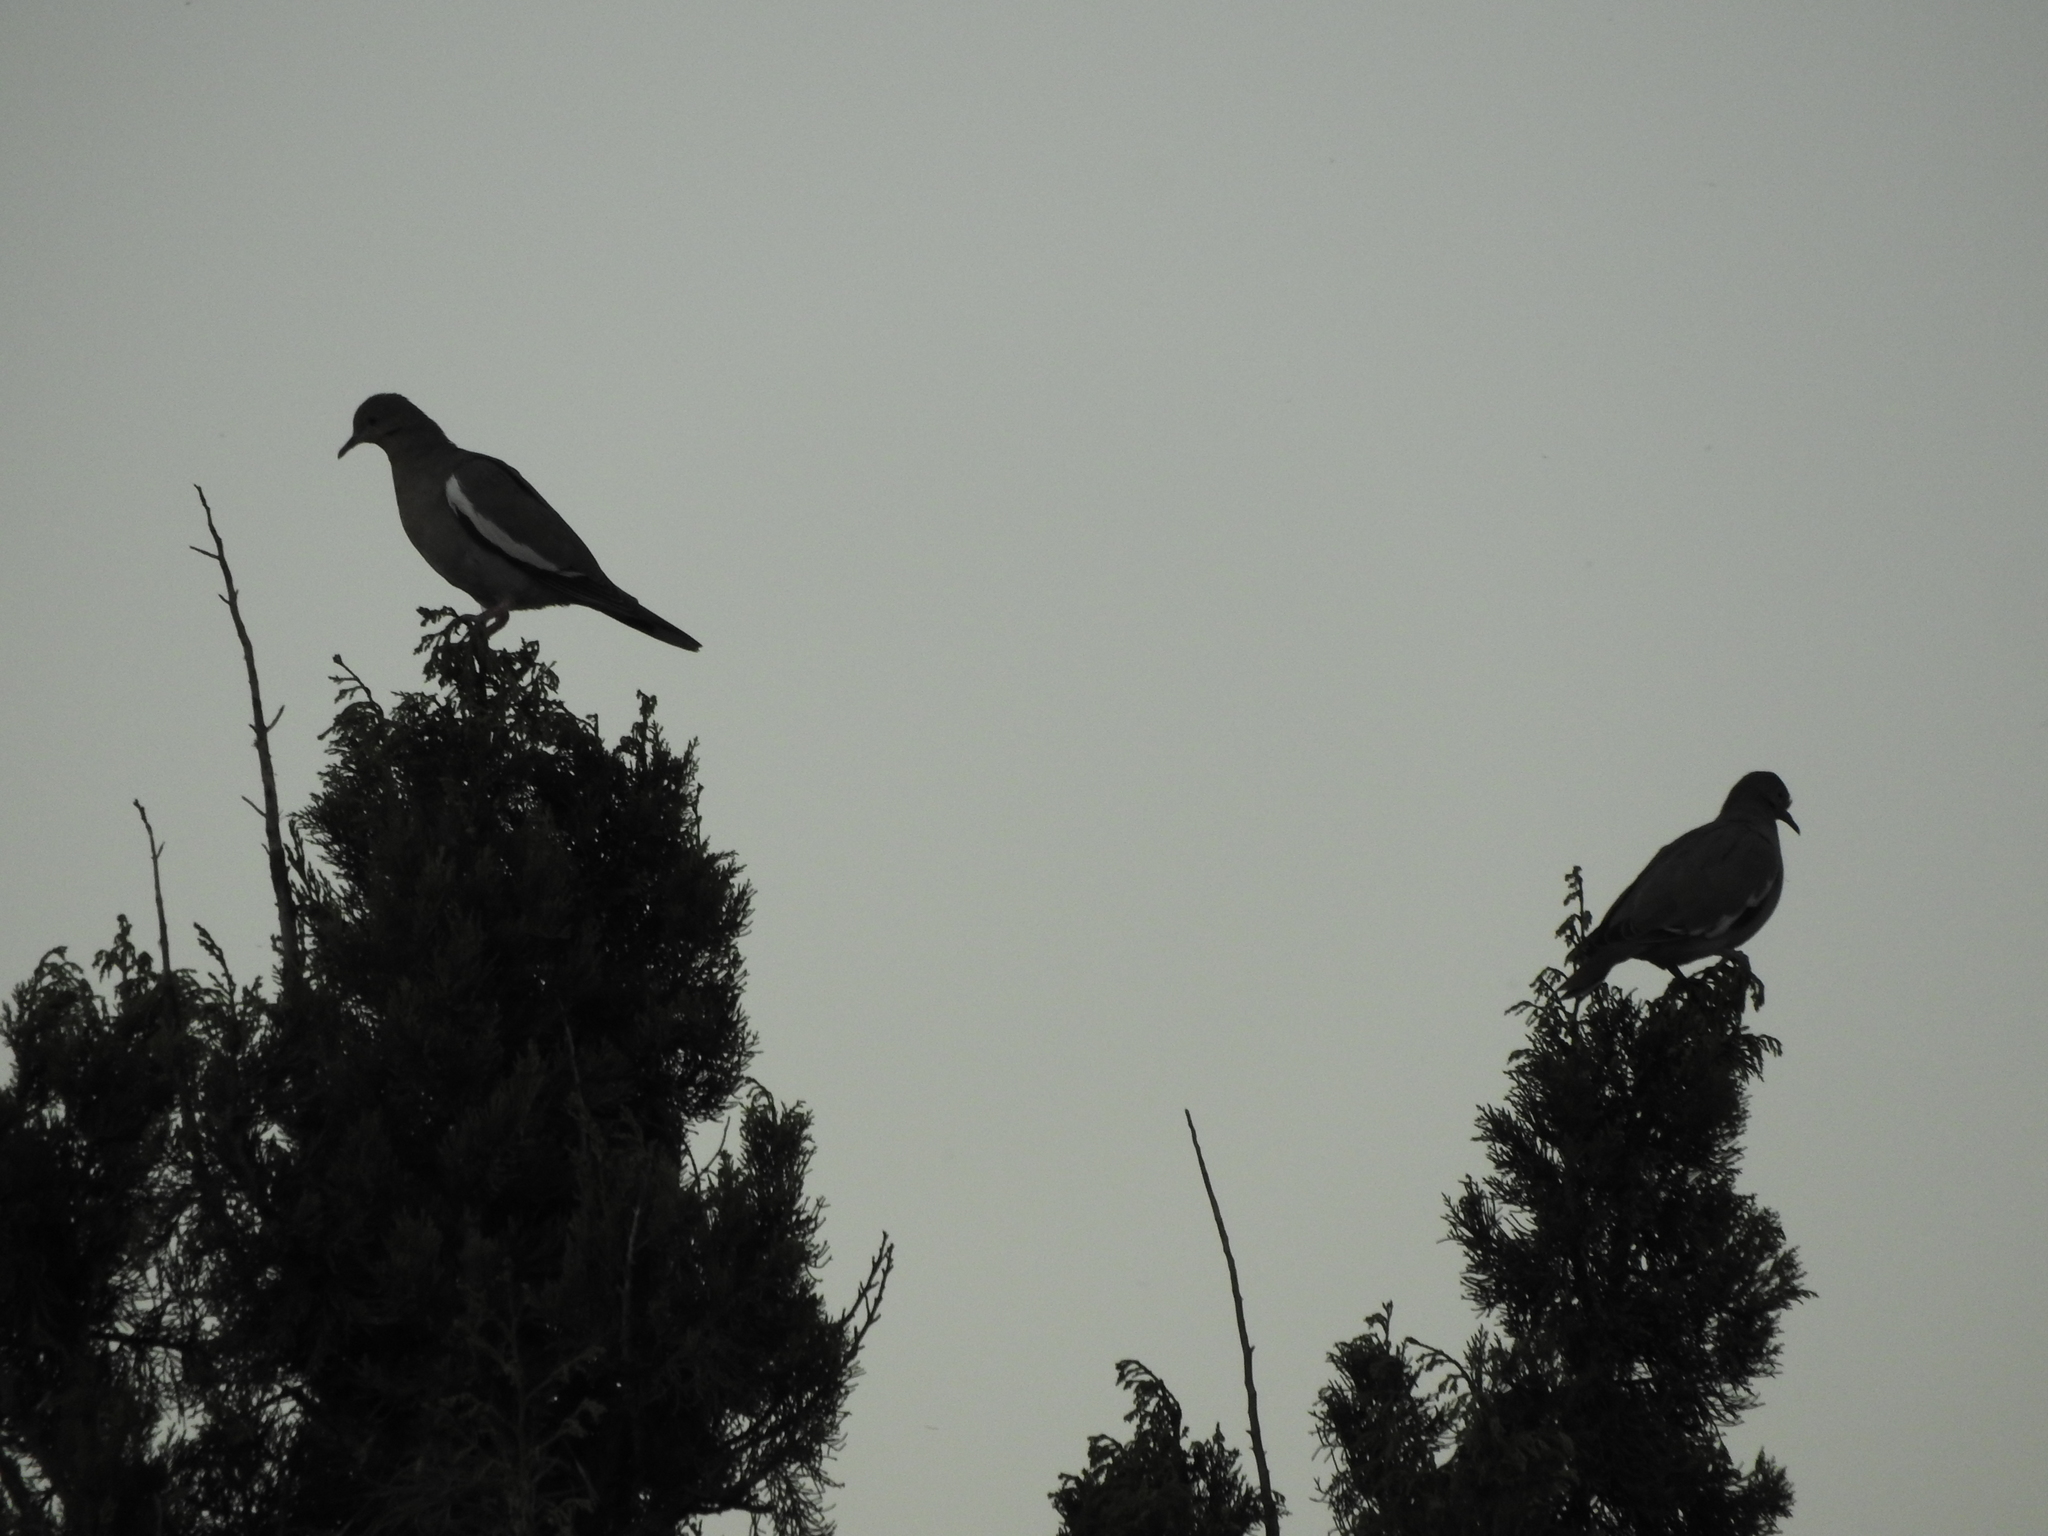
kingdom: Animalia
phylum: Chordata
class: Aves
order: Columbiformes
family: Columbidae
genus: Zenaida
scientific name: Zenaida asiatica
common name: White-winged dove
